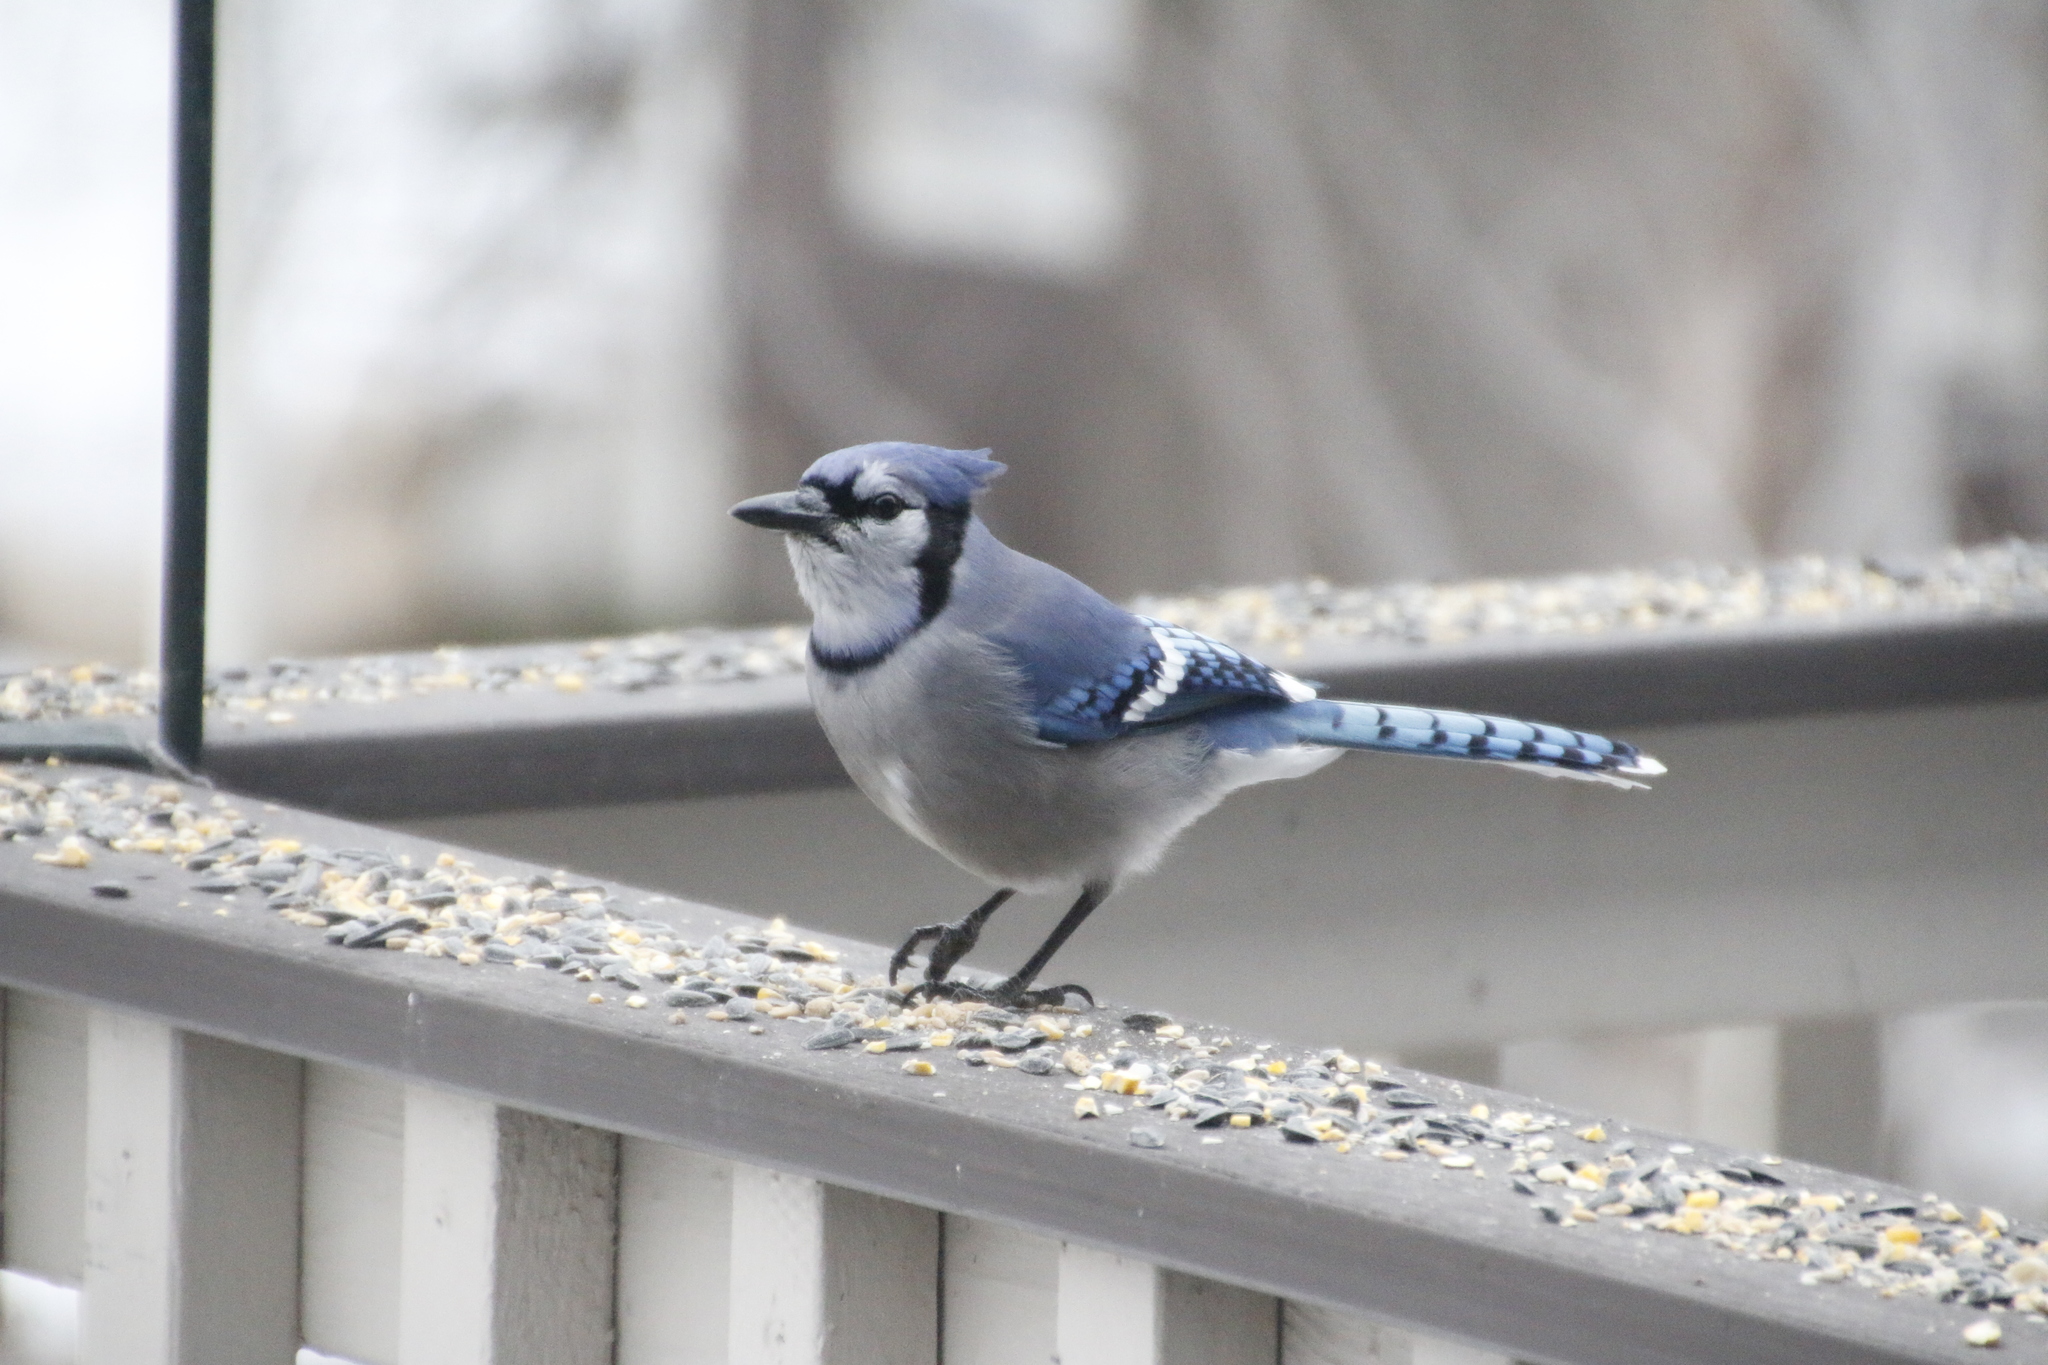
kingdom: Animalia
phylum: Chordata
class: Aves
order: Passeriformes
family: Corvidae
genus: Cyanocitta
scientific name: Cyanocitta cristata
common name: Blue jay
